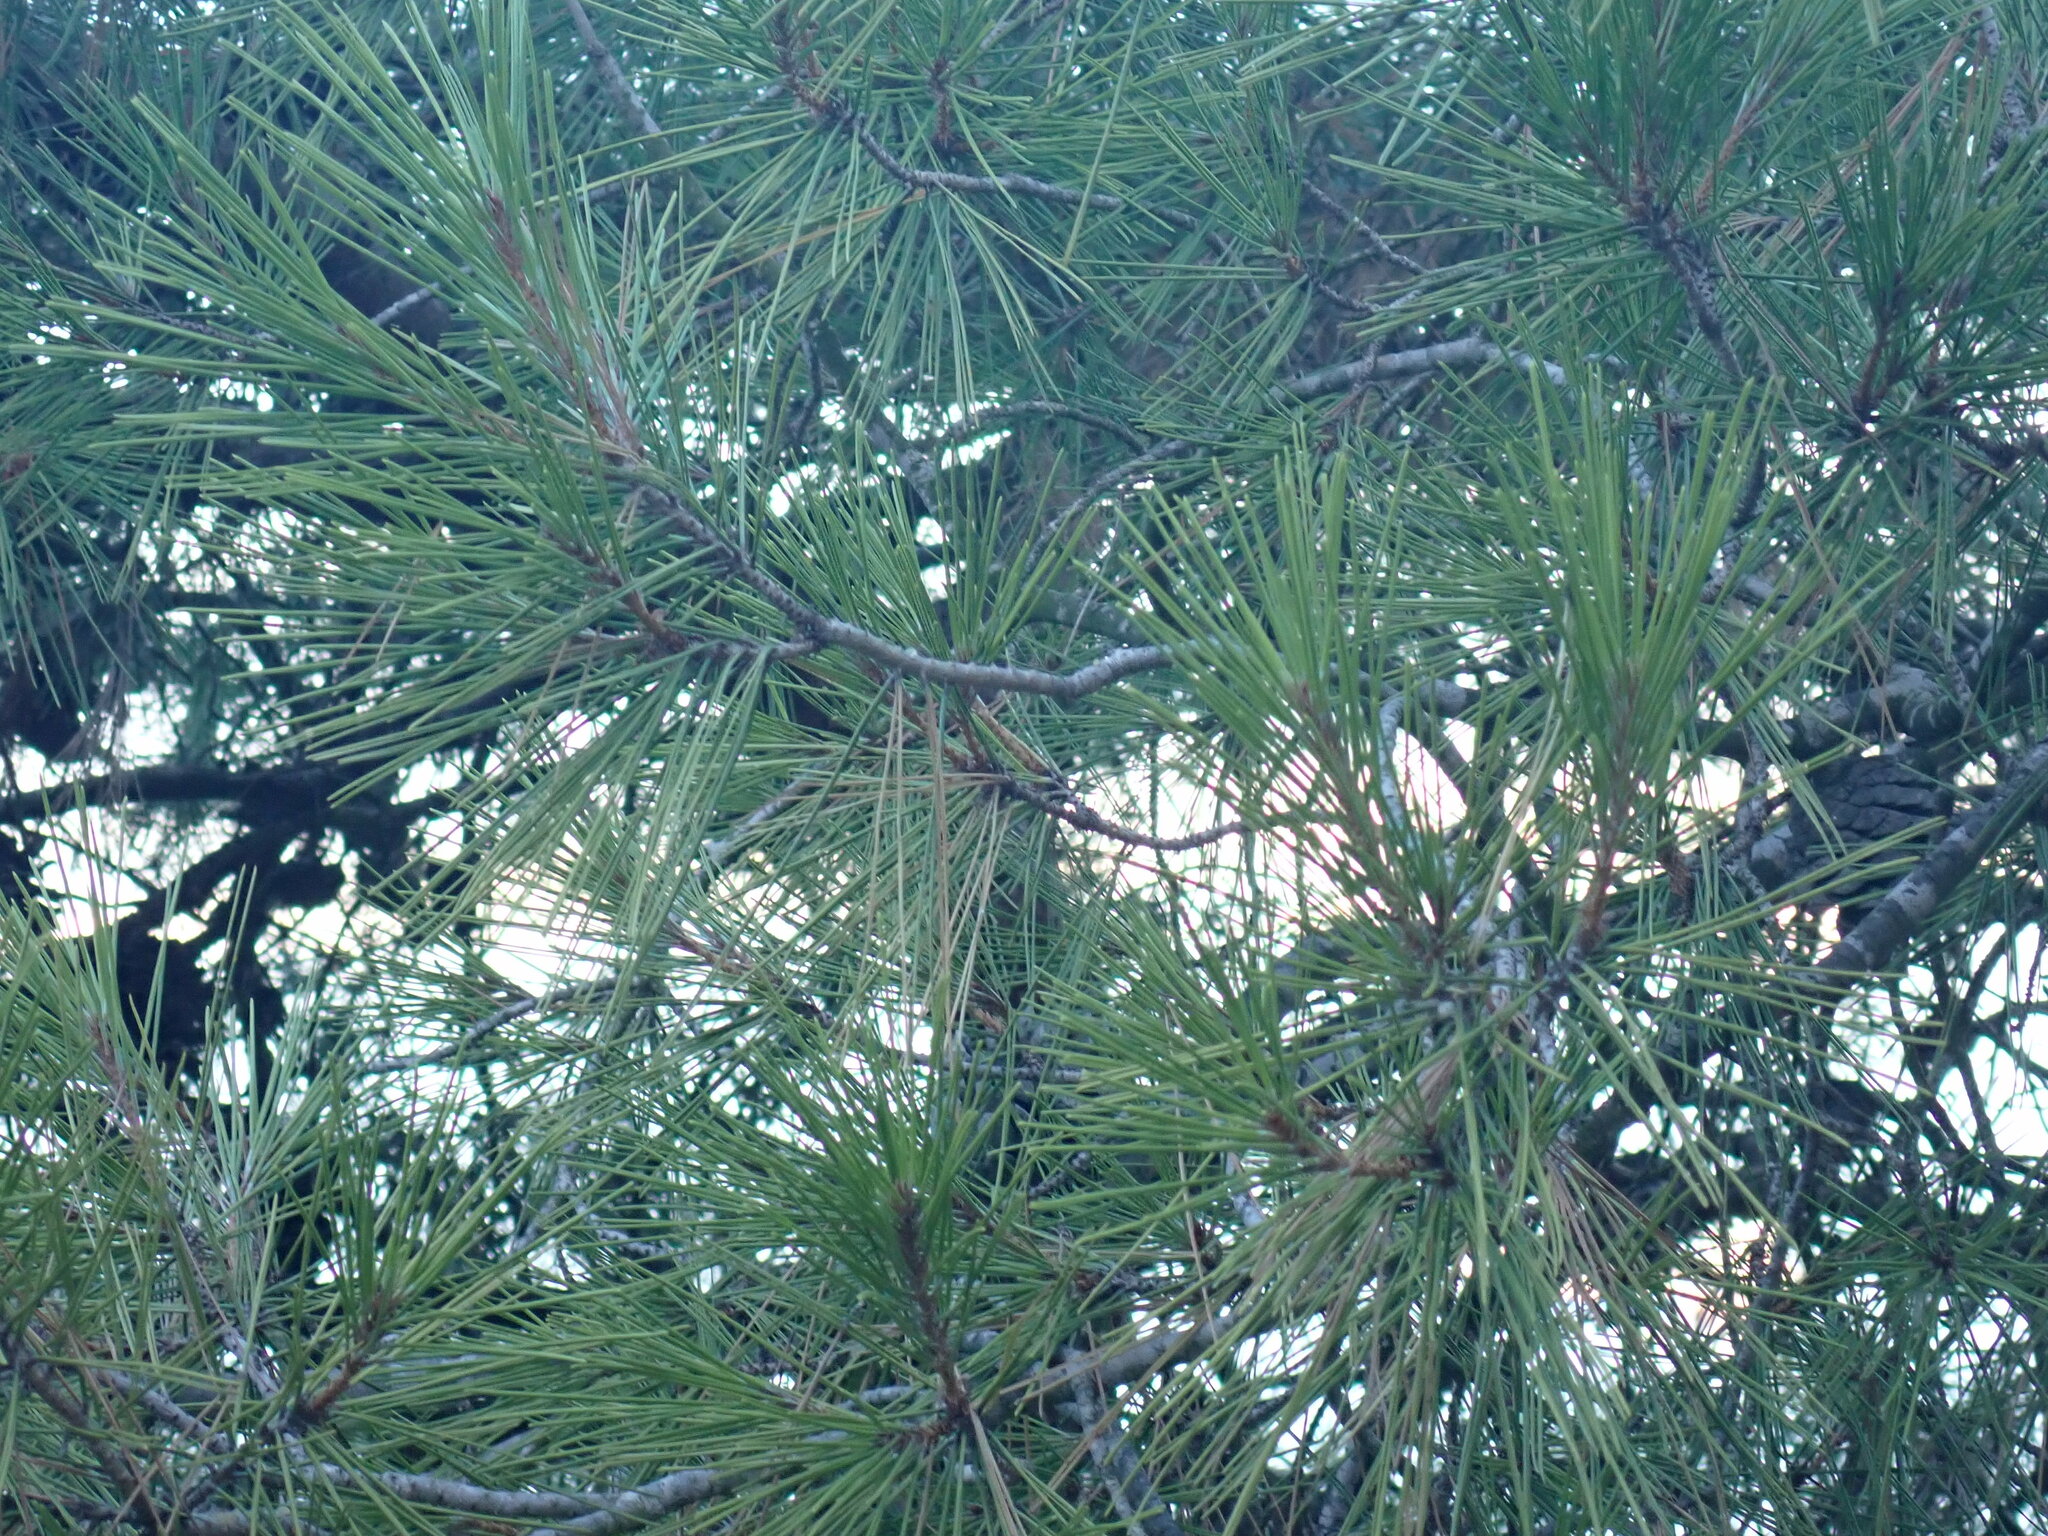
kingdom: Plantae
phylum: Tracheophyta
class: Pinopsida
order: Pinales
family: Pinaceae
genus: Pinus
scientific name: Pinus halepensis
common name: Aleppo pine
